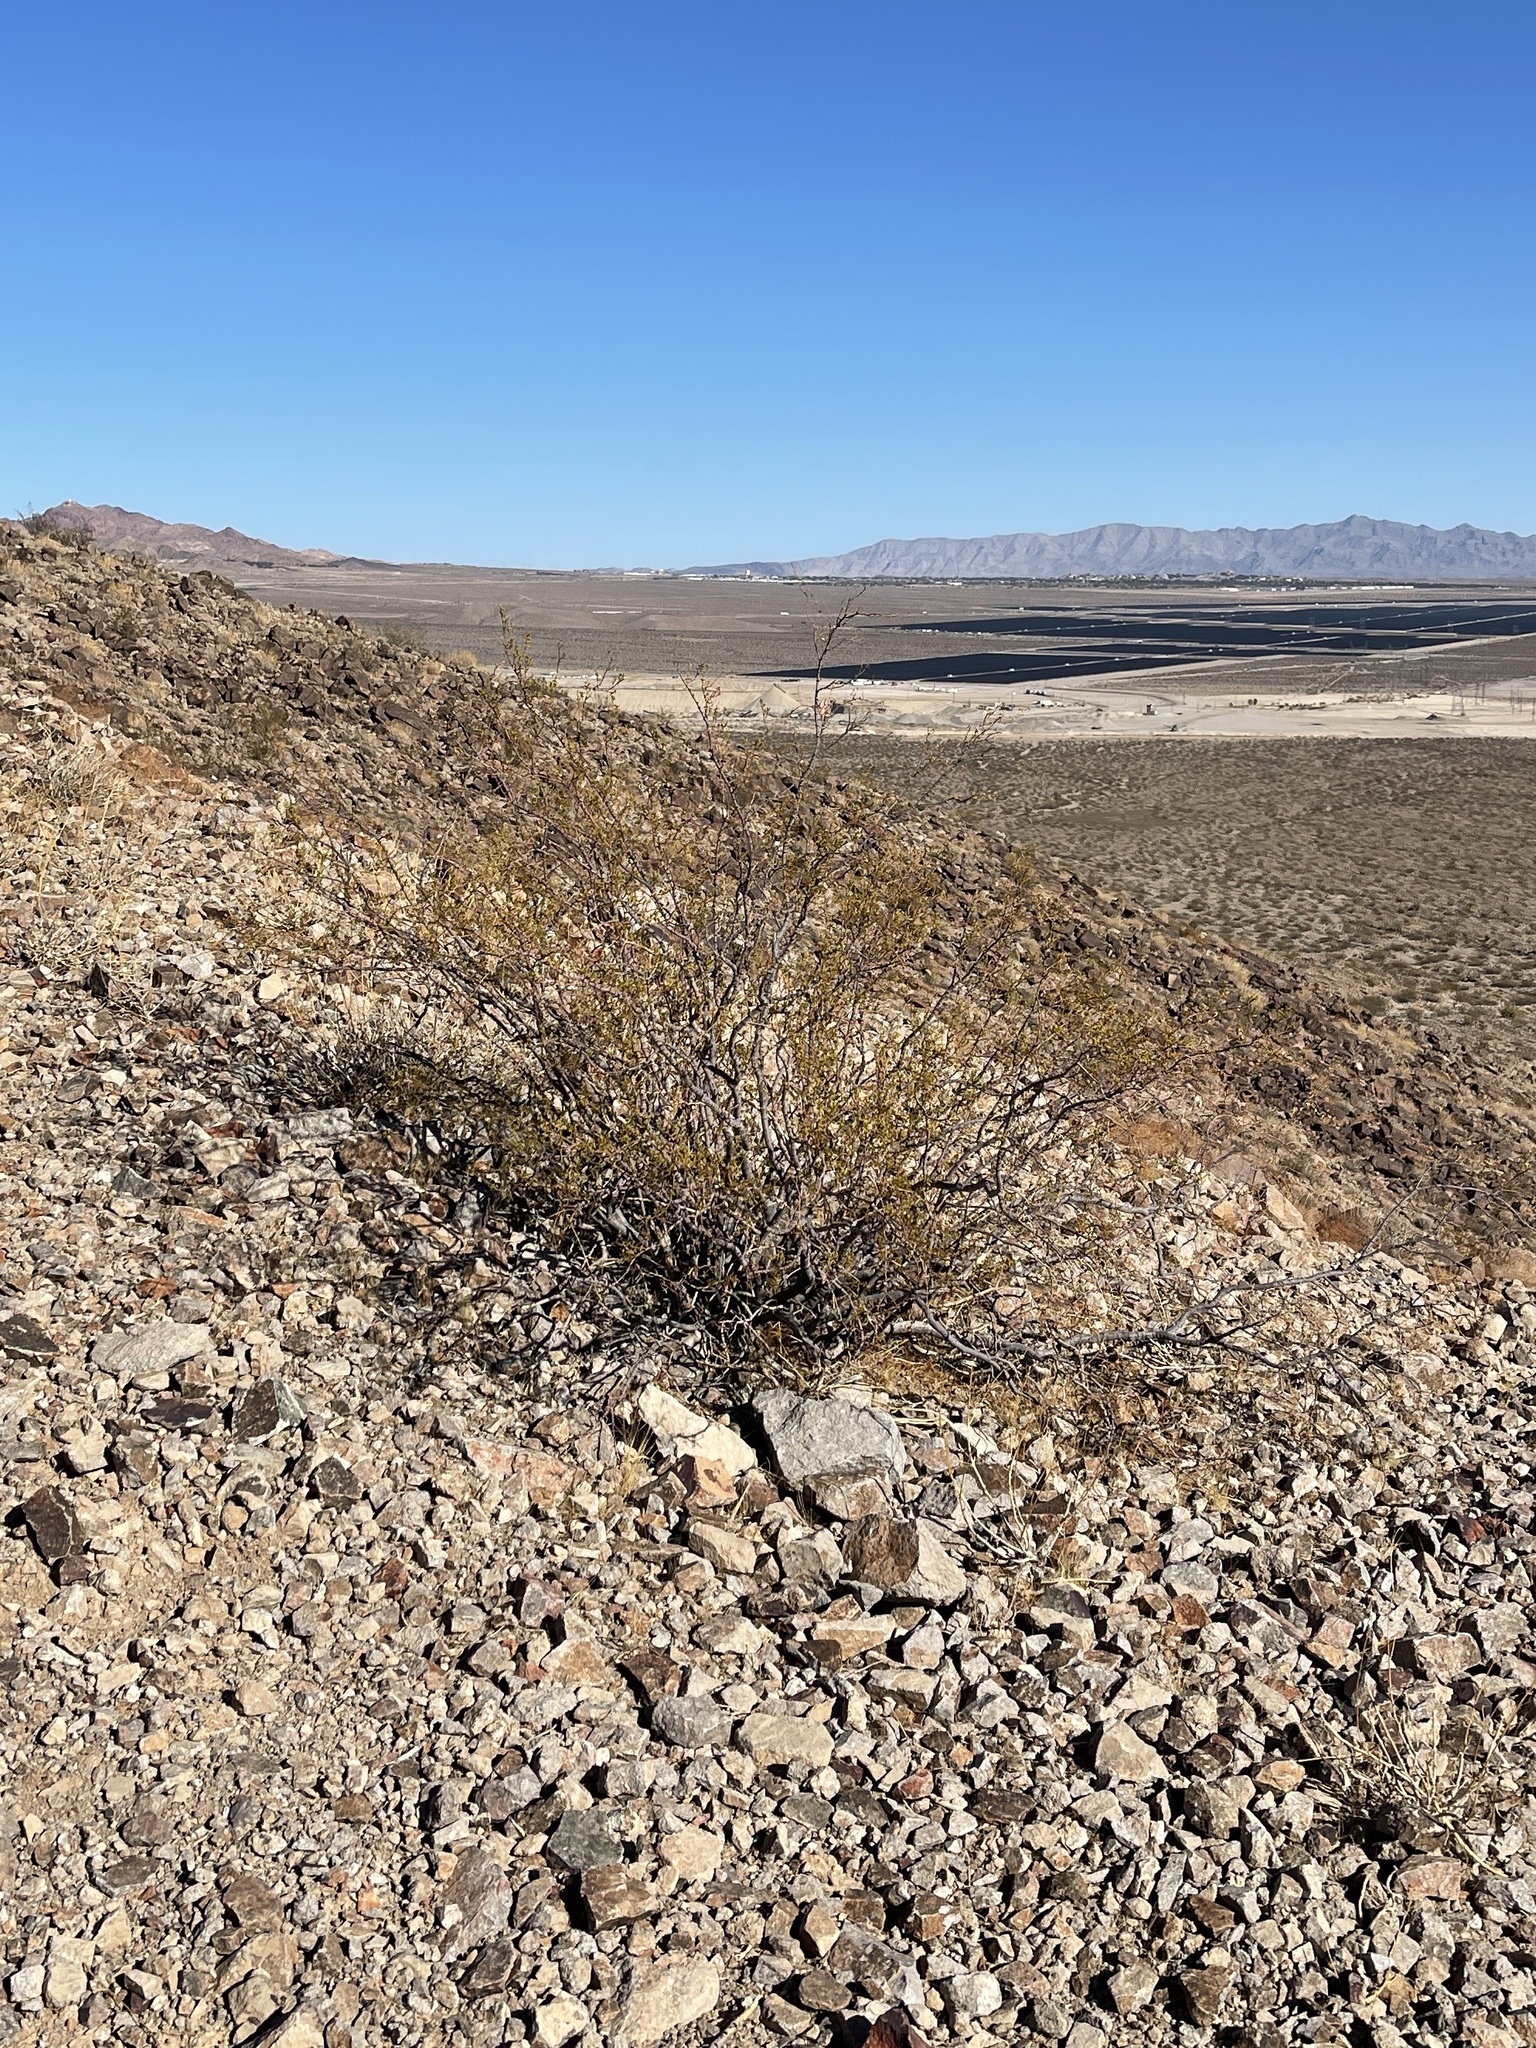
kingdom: Plantae
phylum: Tracheophyta
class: Magnoliopsida
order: Zygophyllales
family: Zygophyllaceae
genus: Larrea
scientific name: Larrea tridentata
